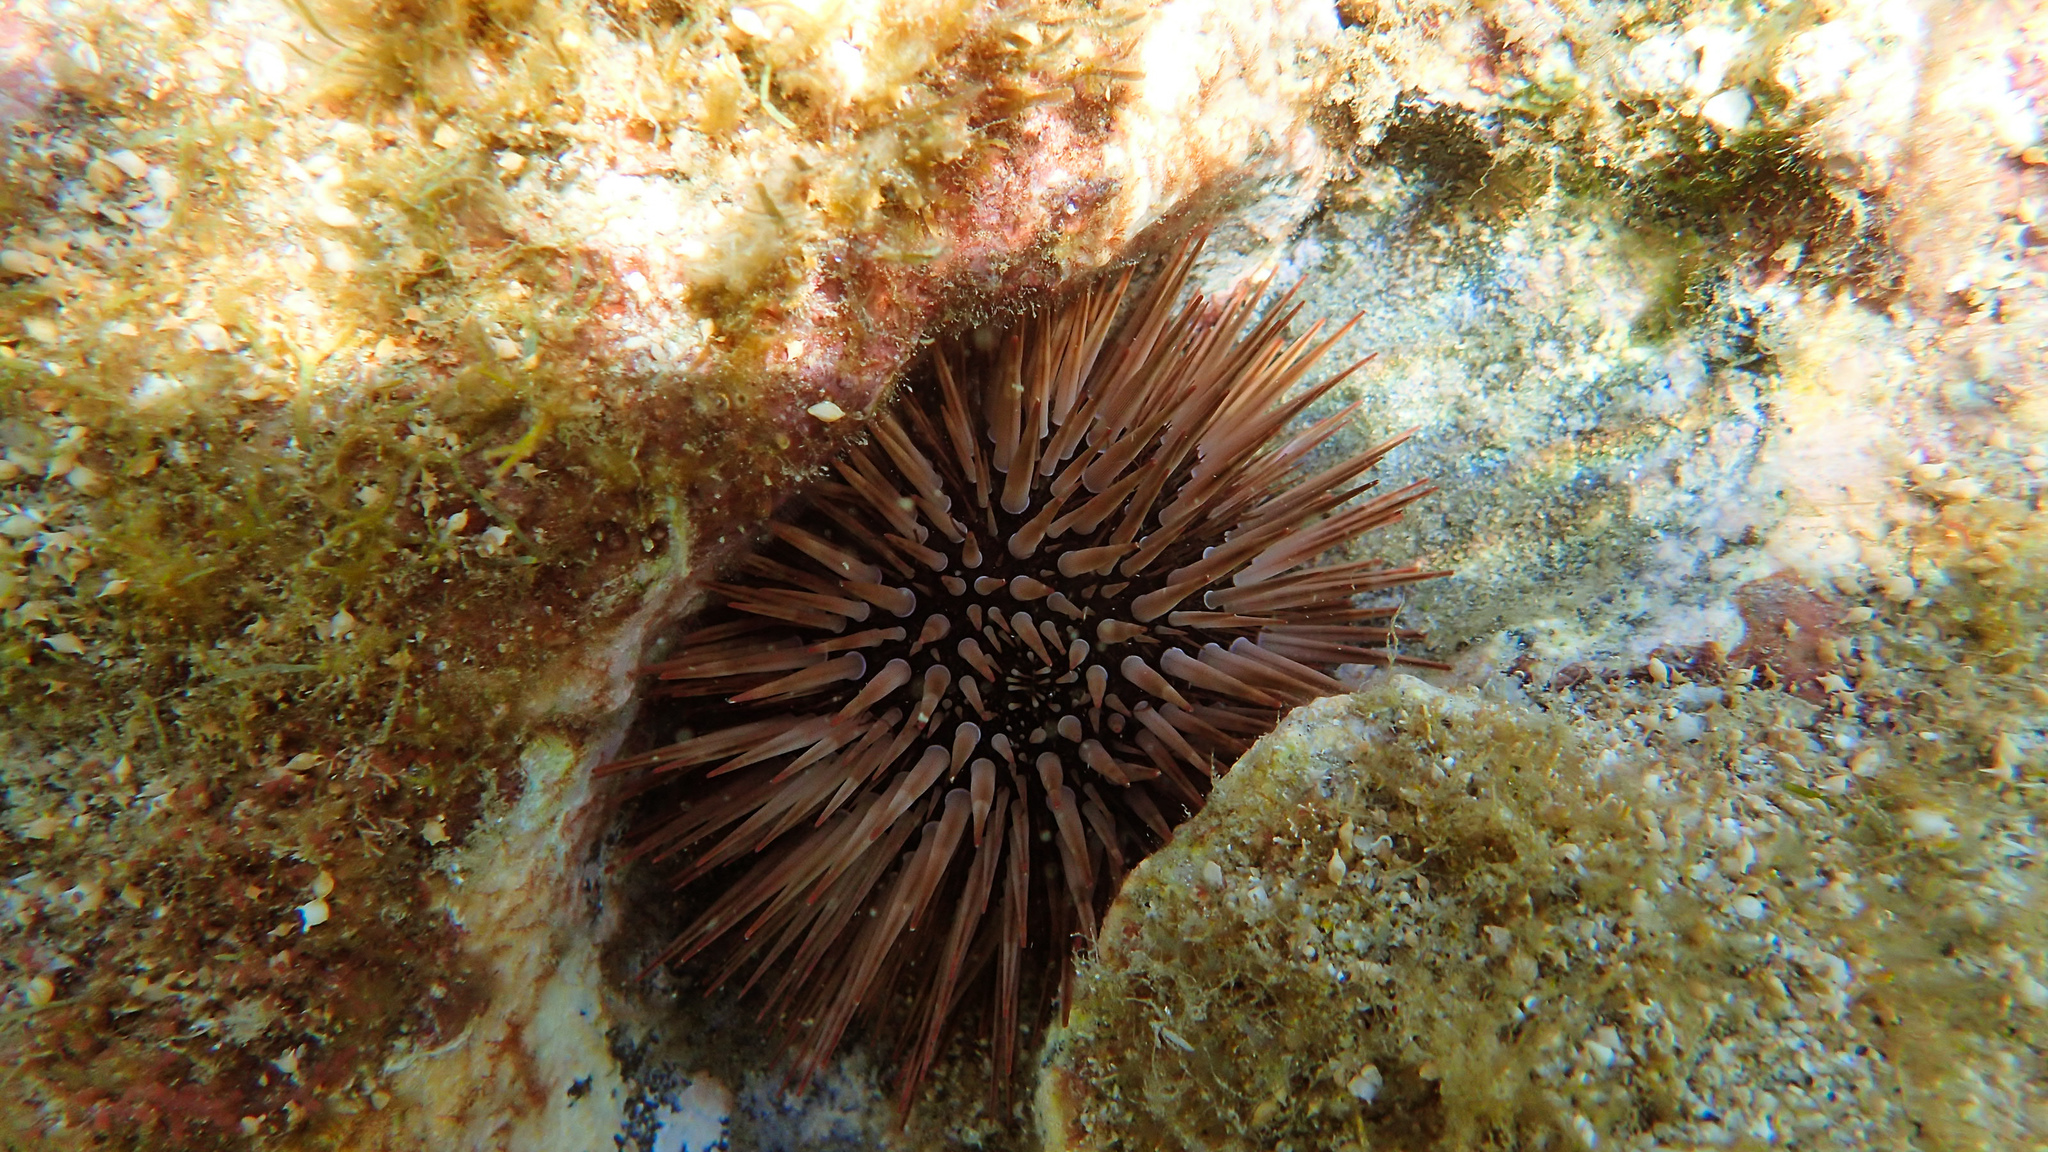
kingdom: Animalia
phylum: Echinodermata
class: Echinoidea
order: Camarodonta
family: Echinometridae
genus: Echinometra
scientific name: Echinometra mathaei
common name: Rock-boring urchin
